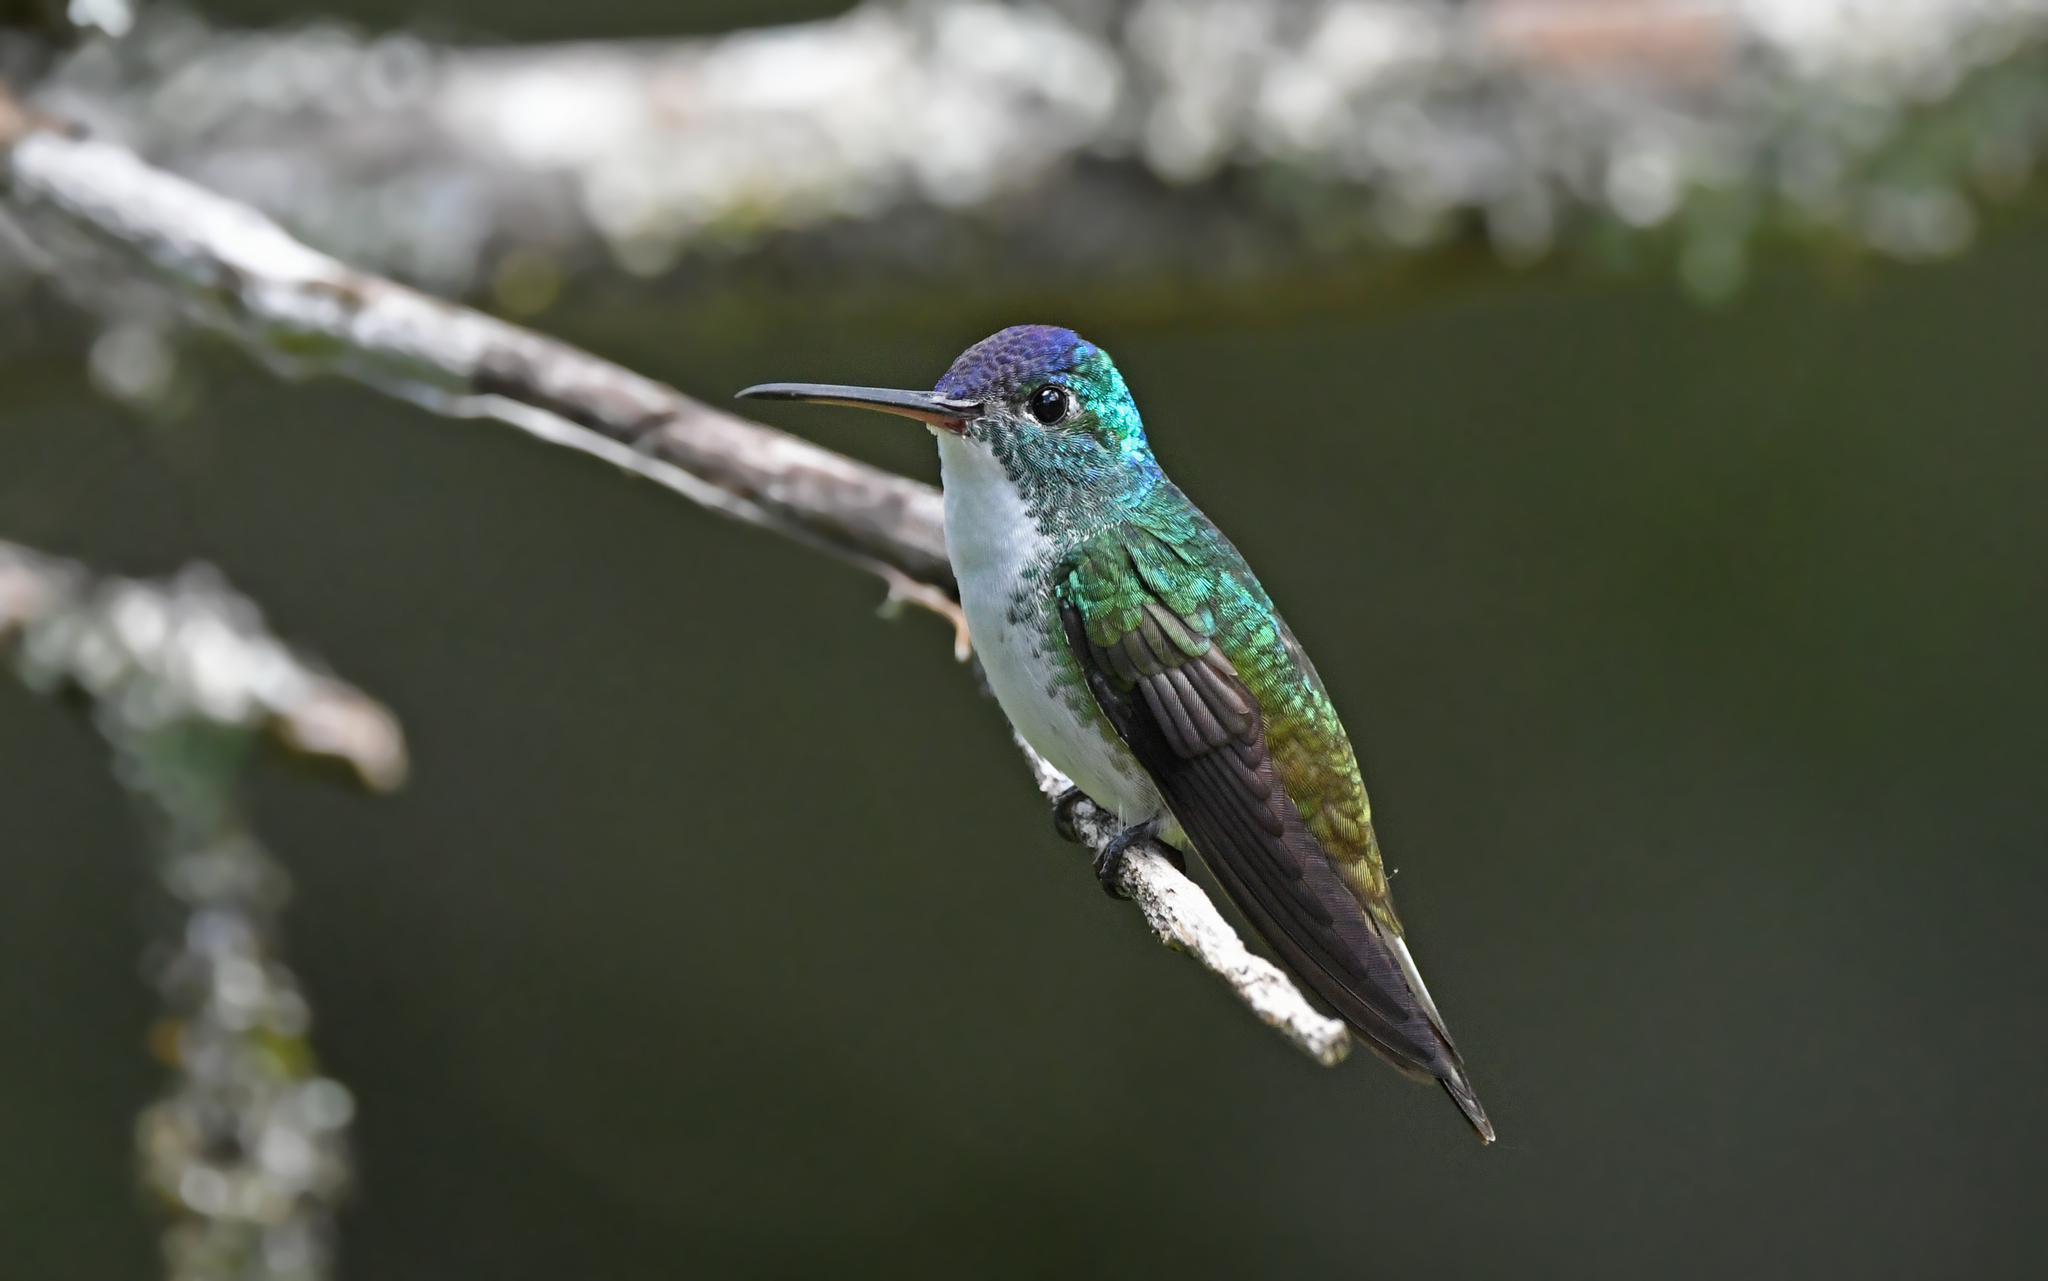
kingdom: Animalia
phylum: Chordata
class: Aves
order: Apodiformes
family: Trochilidae
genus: Uranomitra
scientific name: Uranomitra franciae
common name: Andean emerald
